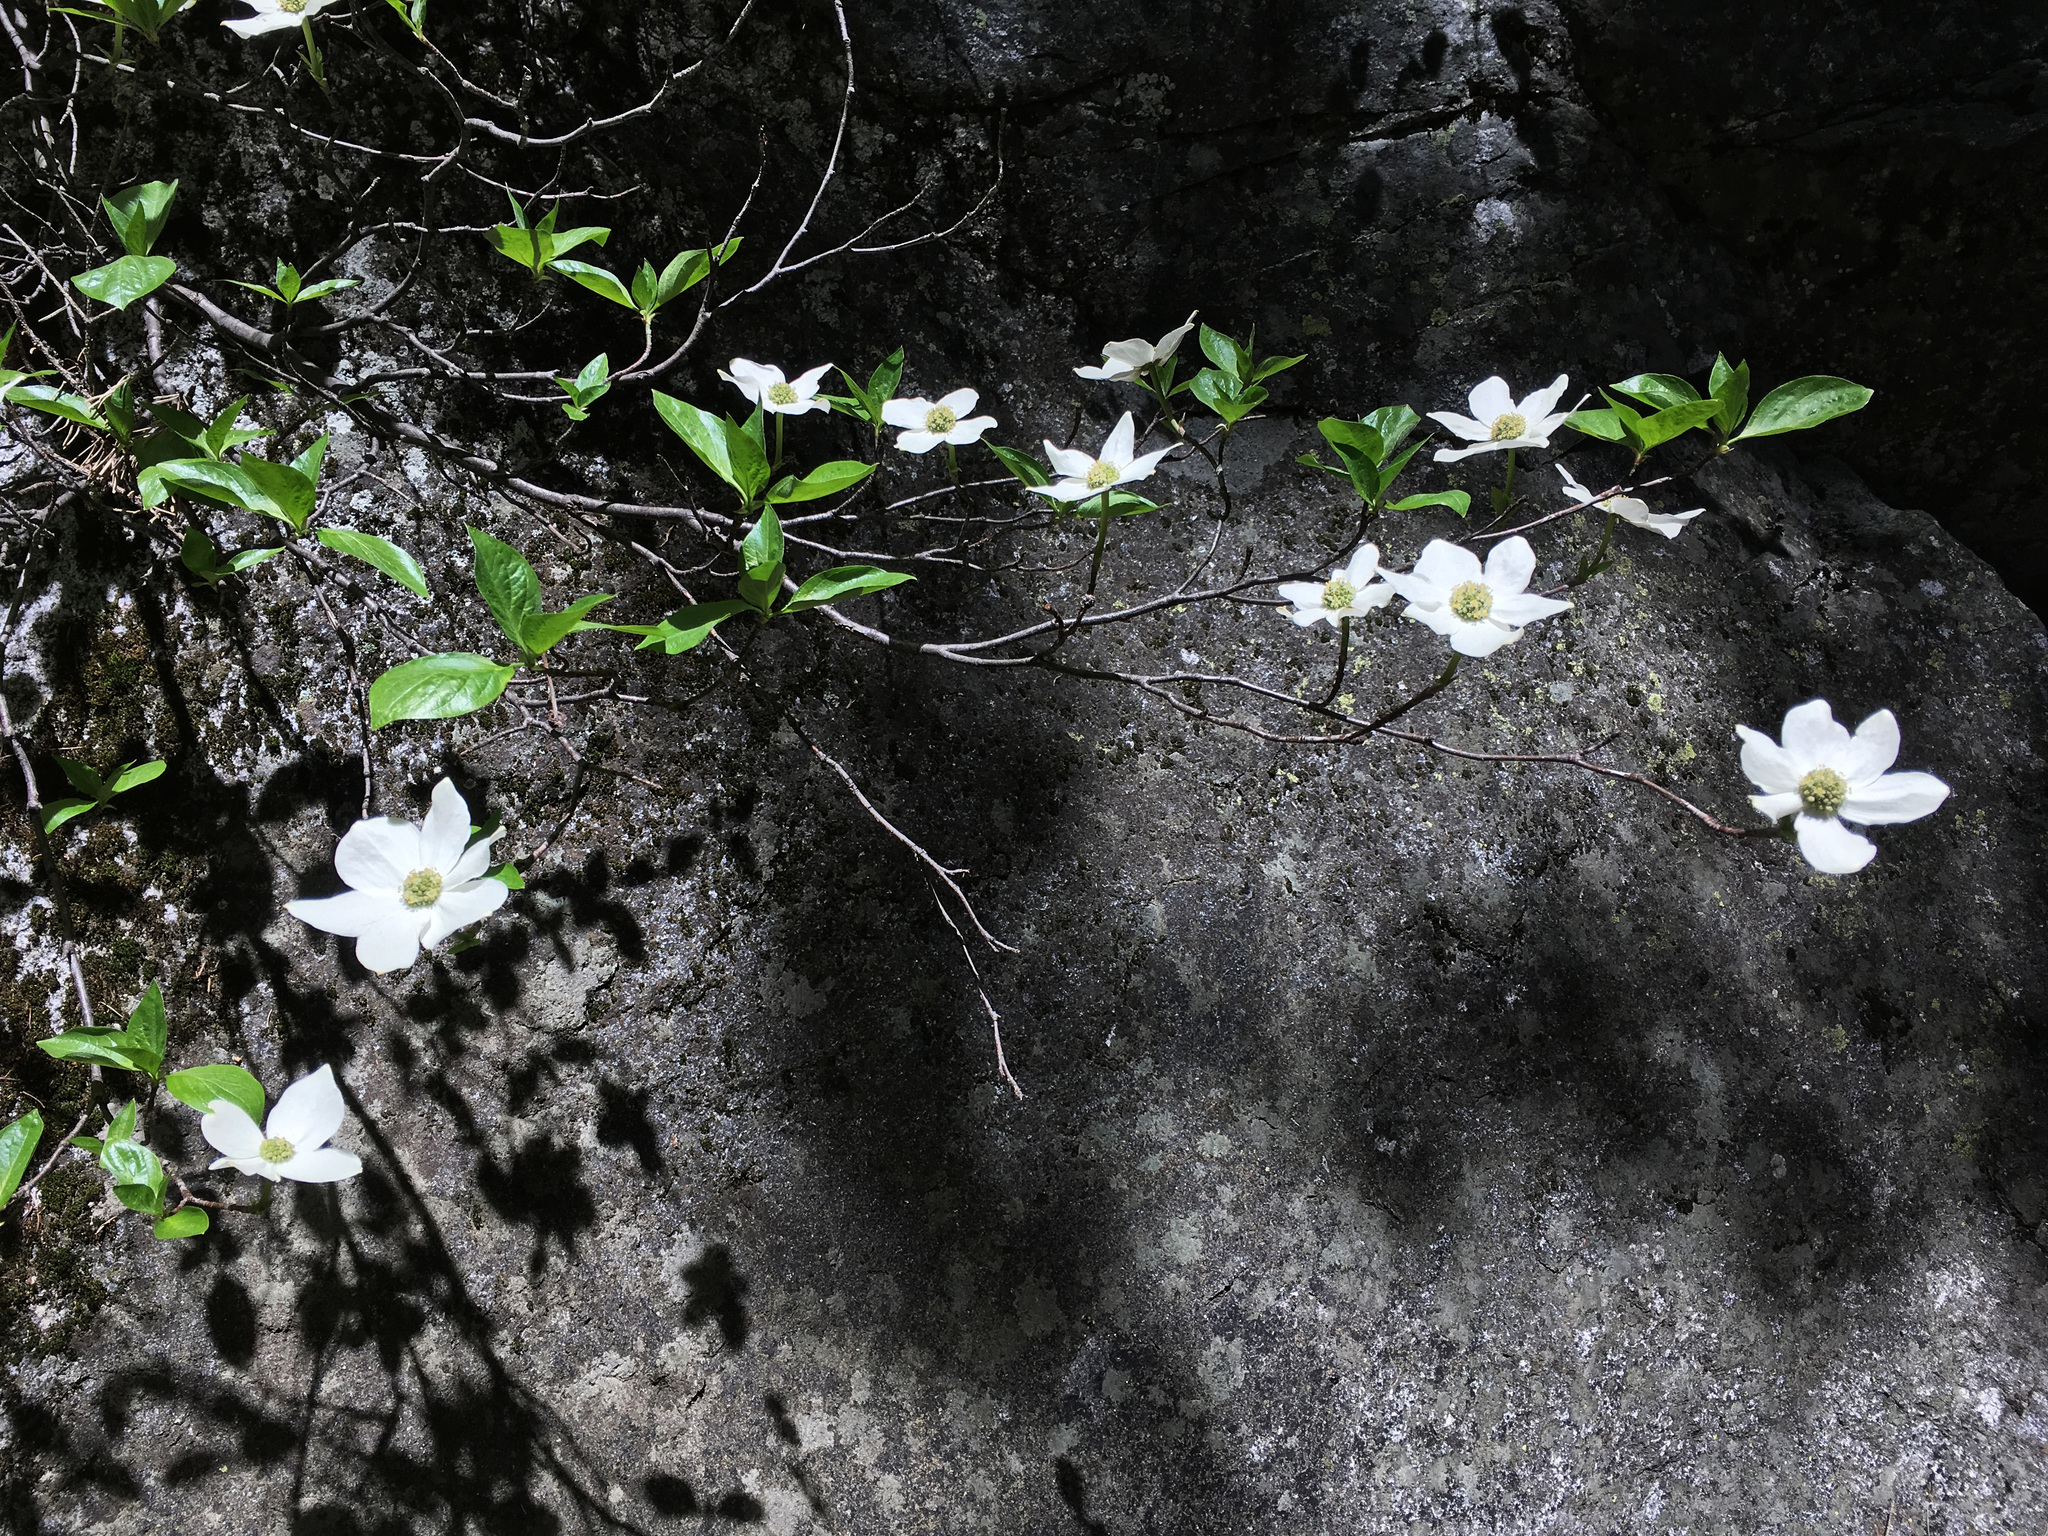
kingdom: Plantae
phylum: Tracheophyta
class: Magnoliopsida
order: Cornales
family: Cornaceae
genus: Cornus
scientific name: Cornus nuttallii
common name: Pacific dogwood
